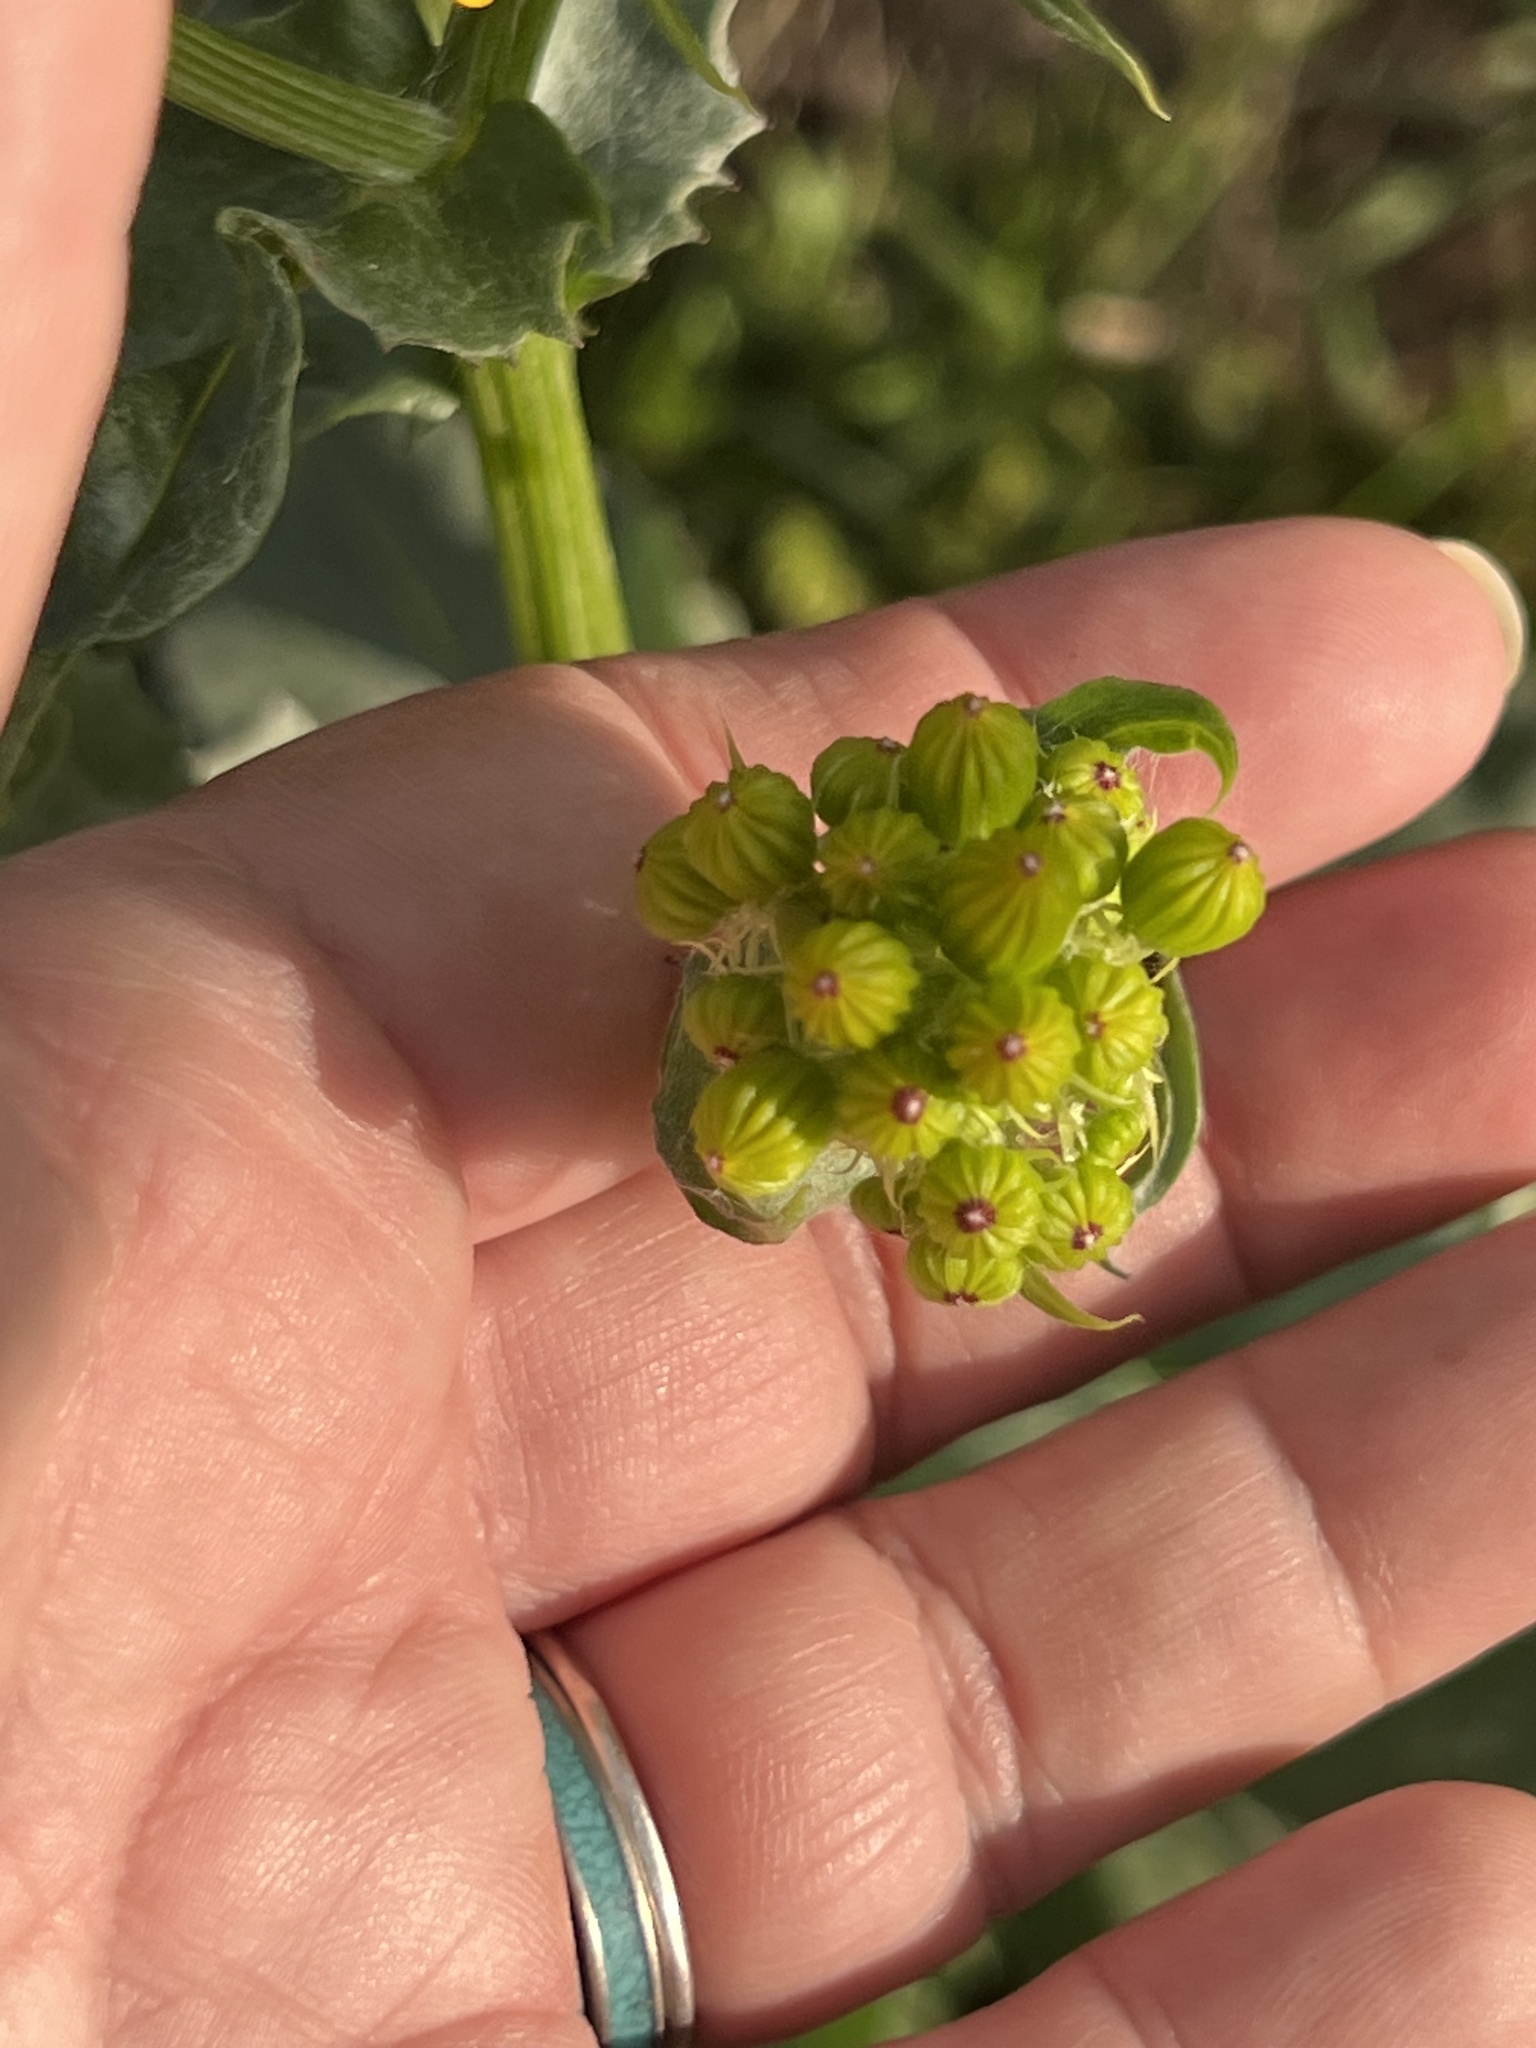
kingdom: Plantae
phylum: Tracheophyta
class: Magnoliopsida
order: Asterales
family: Asteraceae
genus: Senecio
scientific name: Senecio ampullaceus
